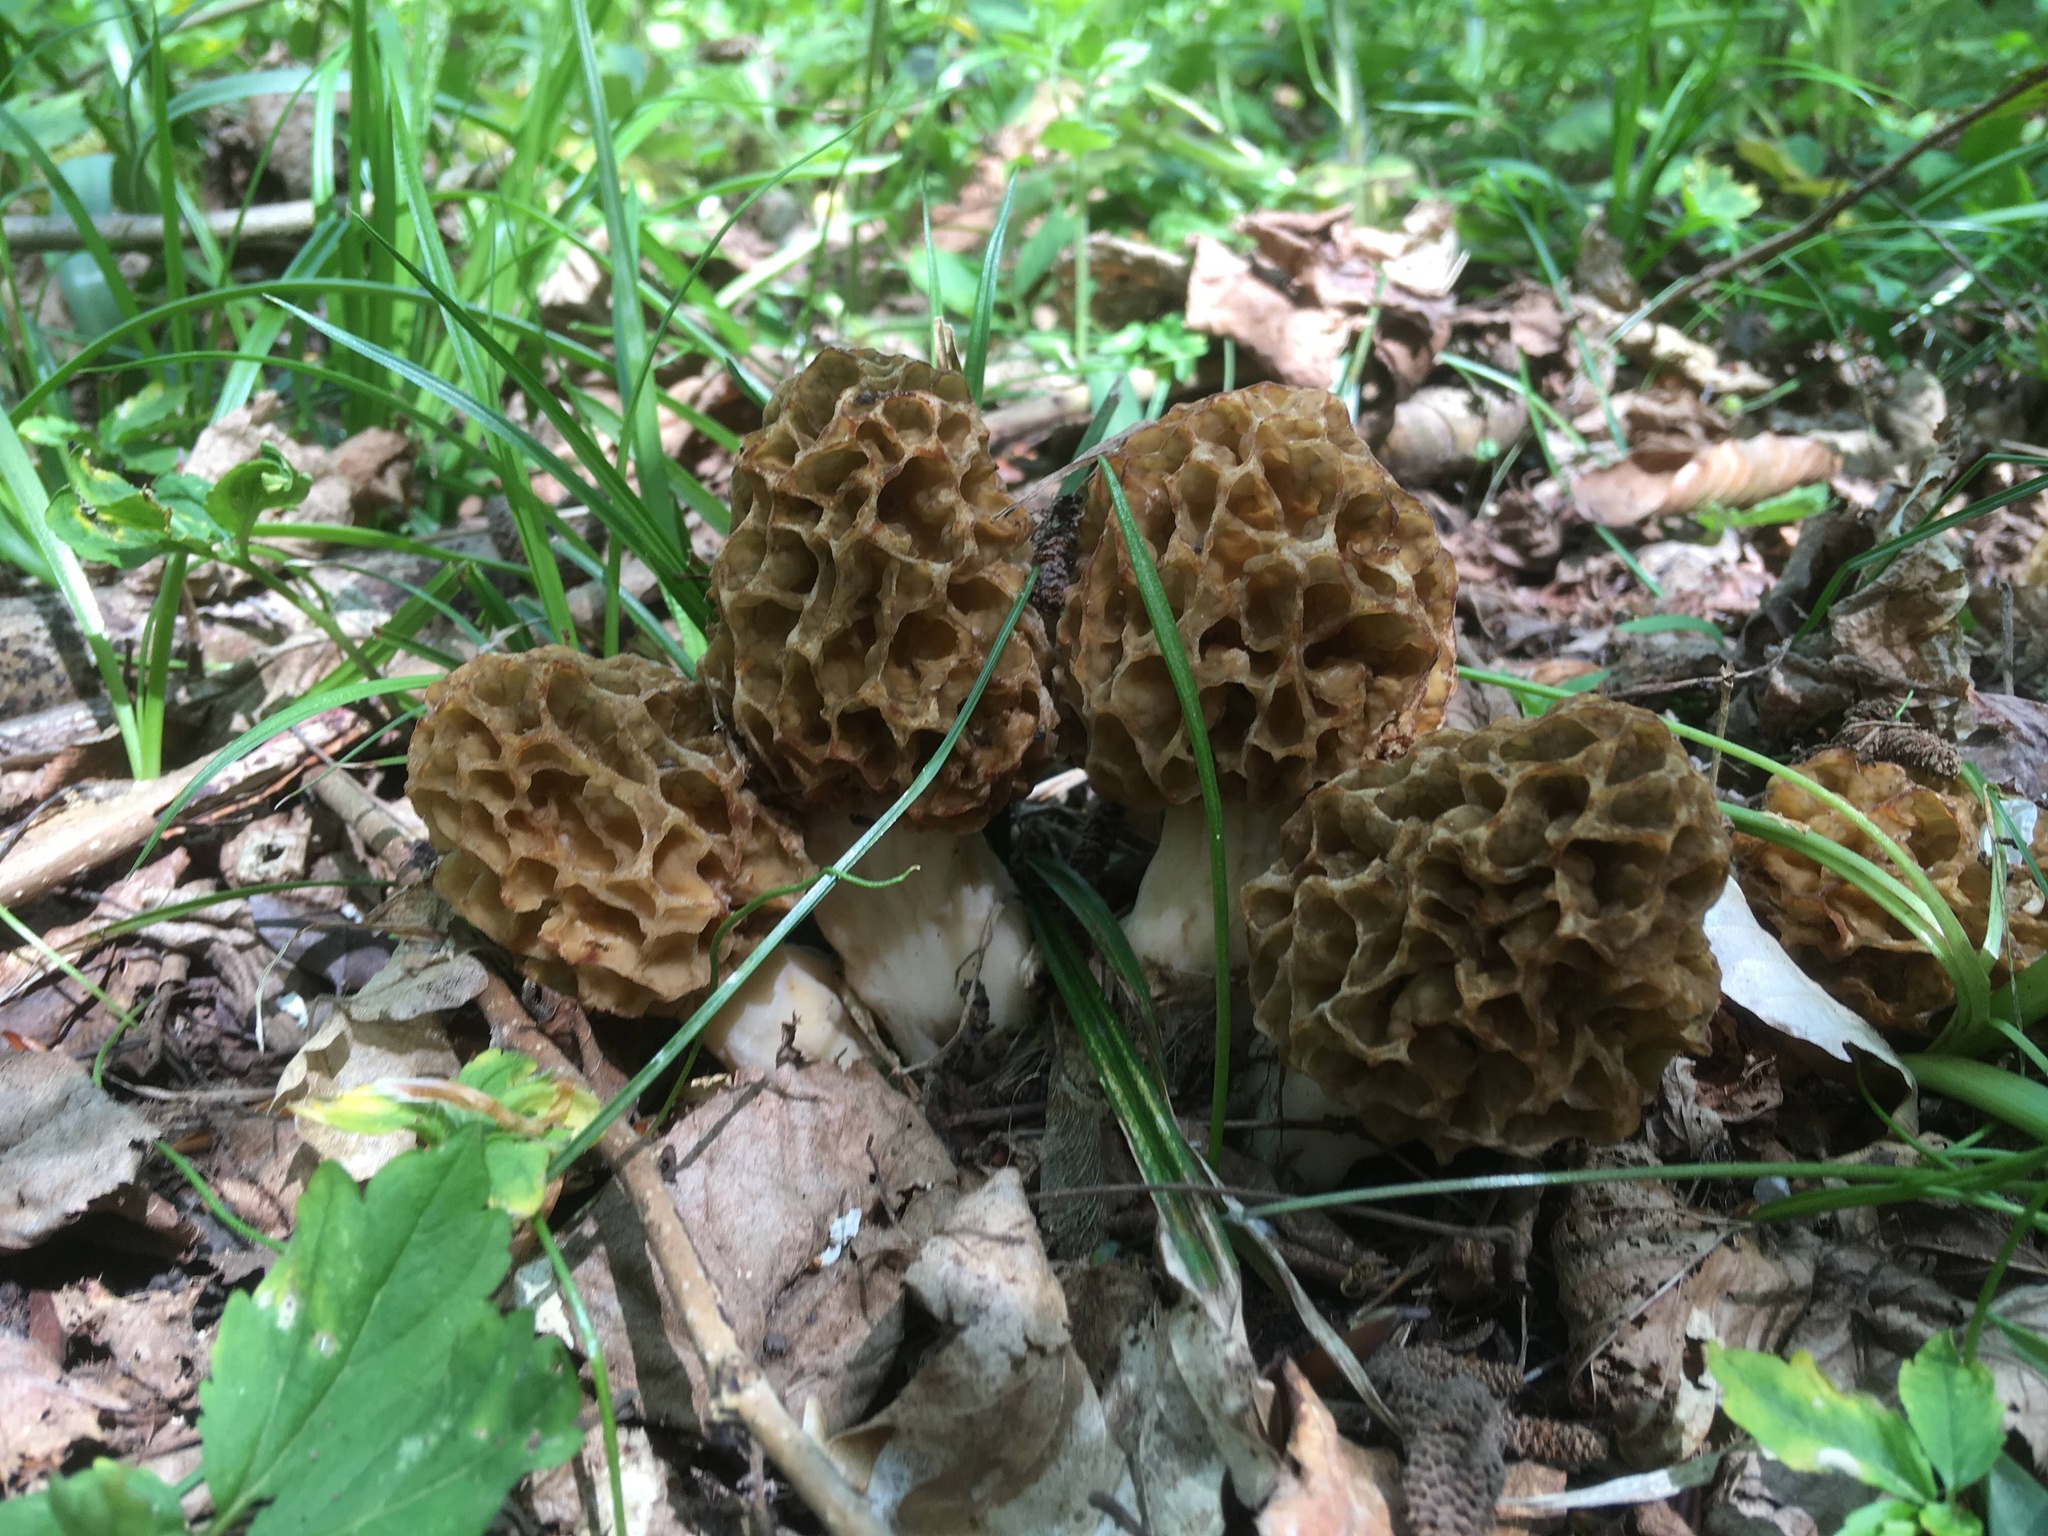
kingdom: Fungi
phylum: Ascomycota
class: Pezizomycetes
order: Pezizales
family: Morchellaceae
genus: Morchella
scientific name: Morchella
